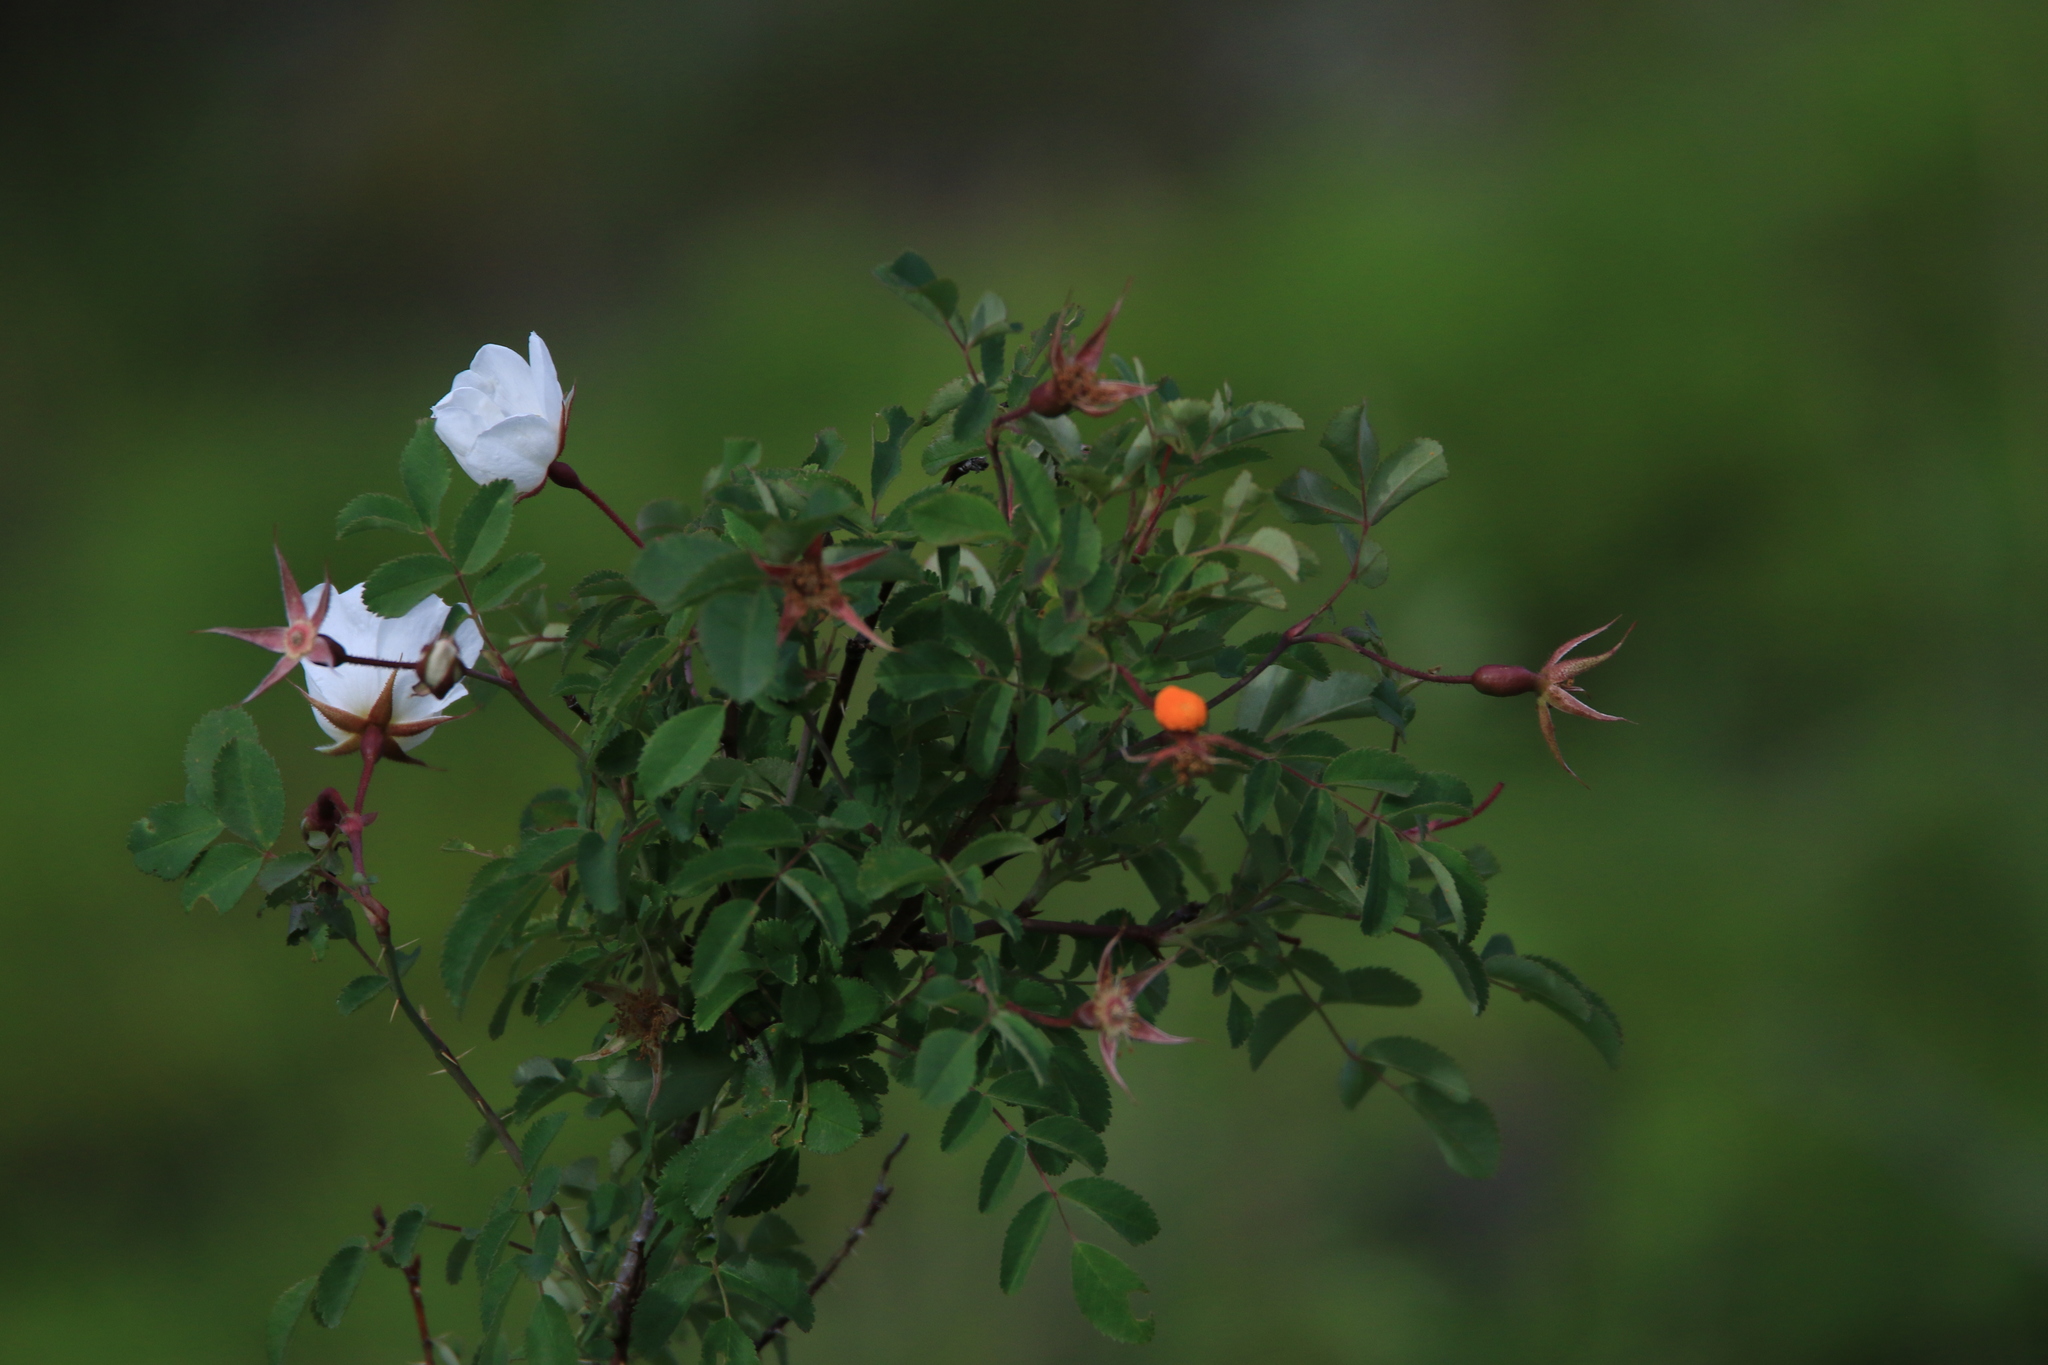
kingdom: Plantae
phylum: Tracheophyta
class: Magnoliopsida
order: Rosales
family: Rosaceae
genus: Rosa
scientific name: Rosa spinosissima
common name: Burnet rose
